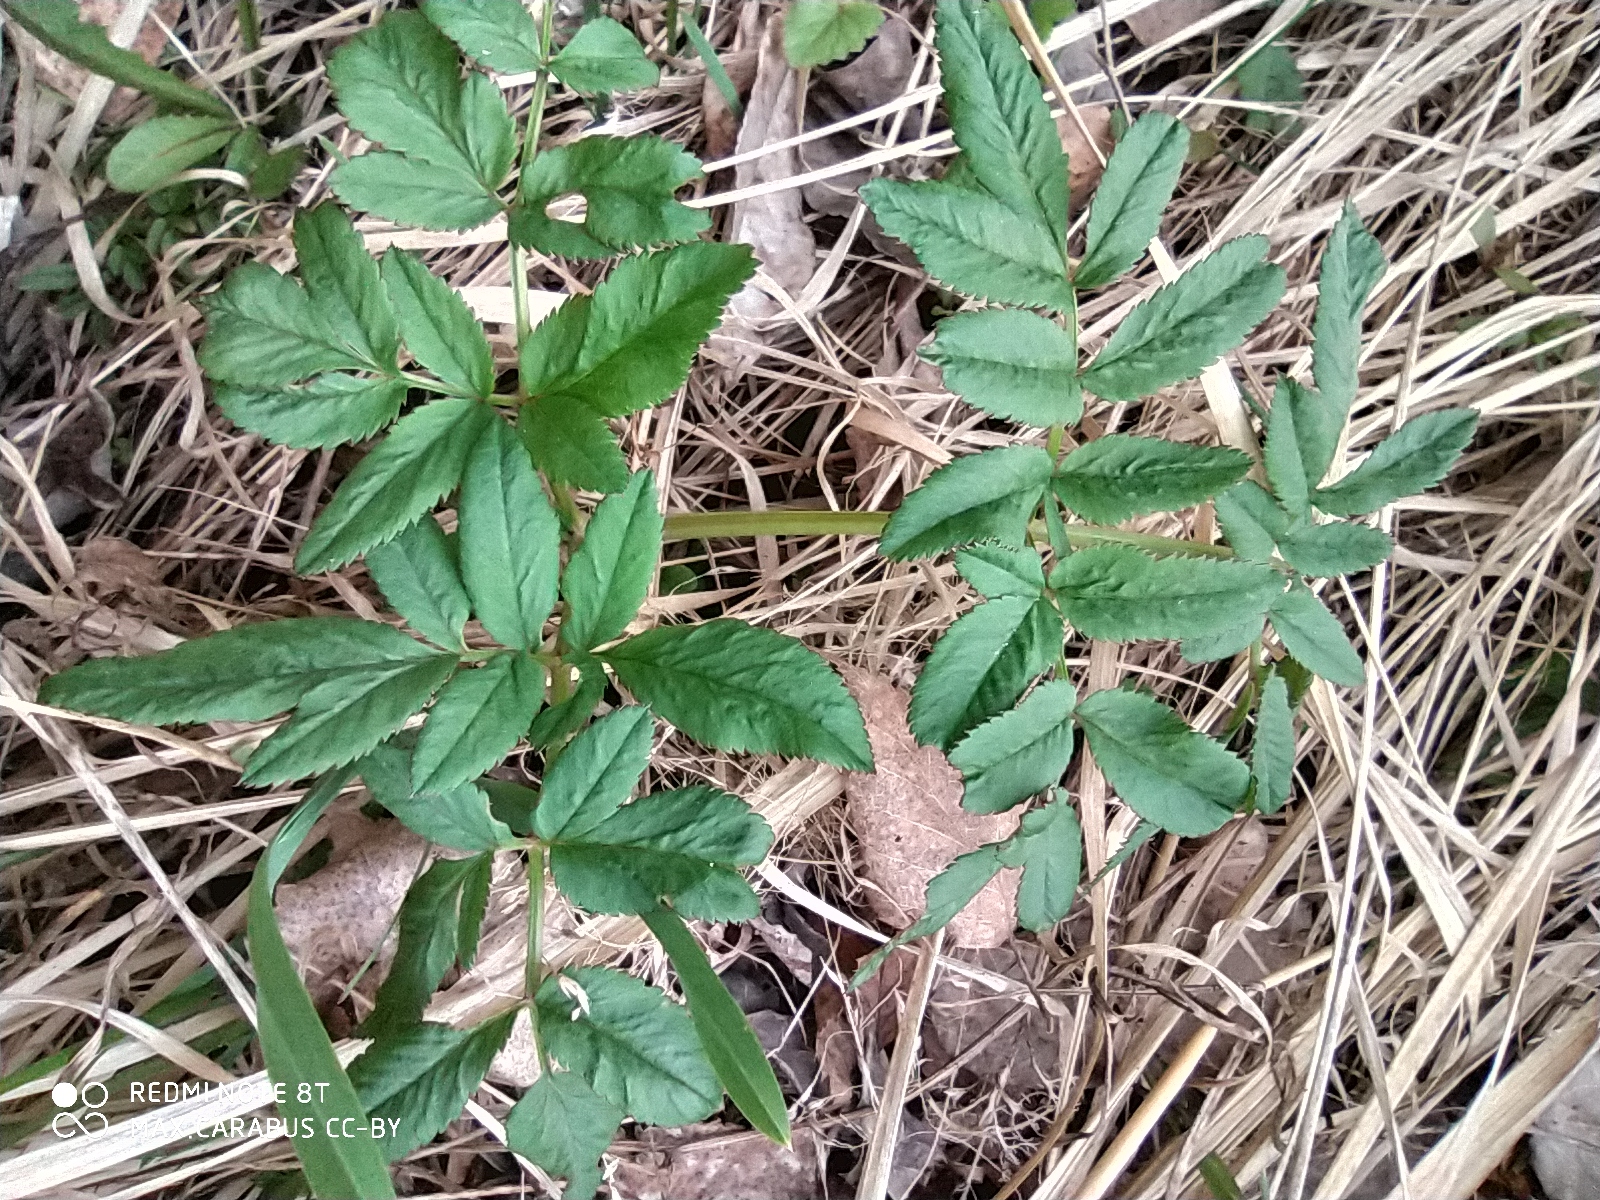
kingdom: Plantae
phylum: Tracheophyta
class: Magnoliopsida
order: Apiales
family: Apiaceae
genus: Angelica
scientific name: Angelica sylvestris
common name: Wild angelica
